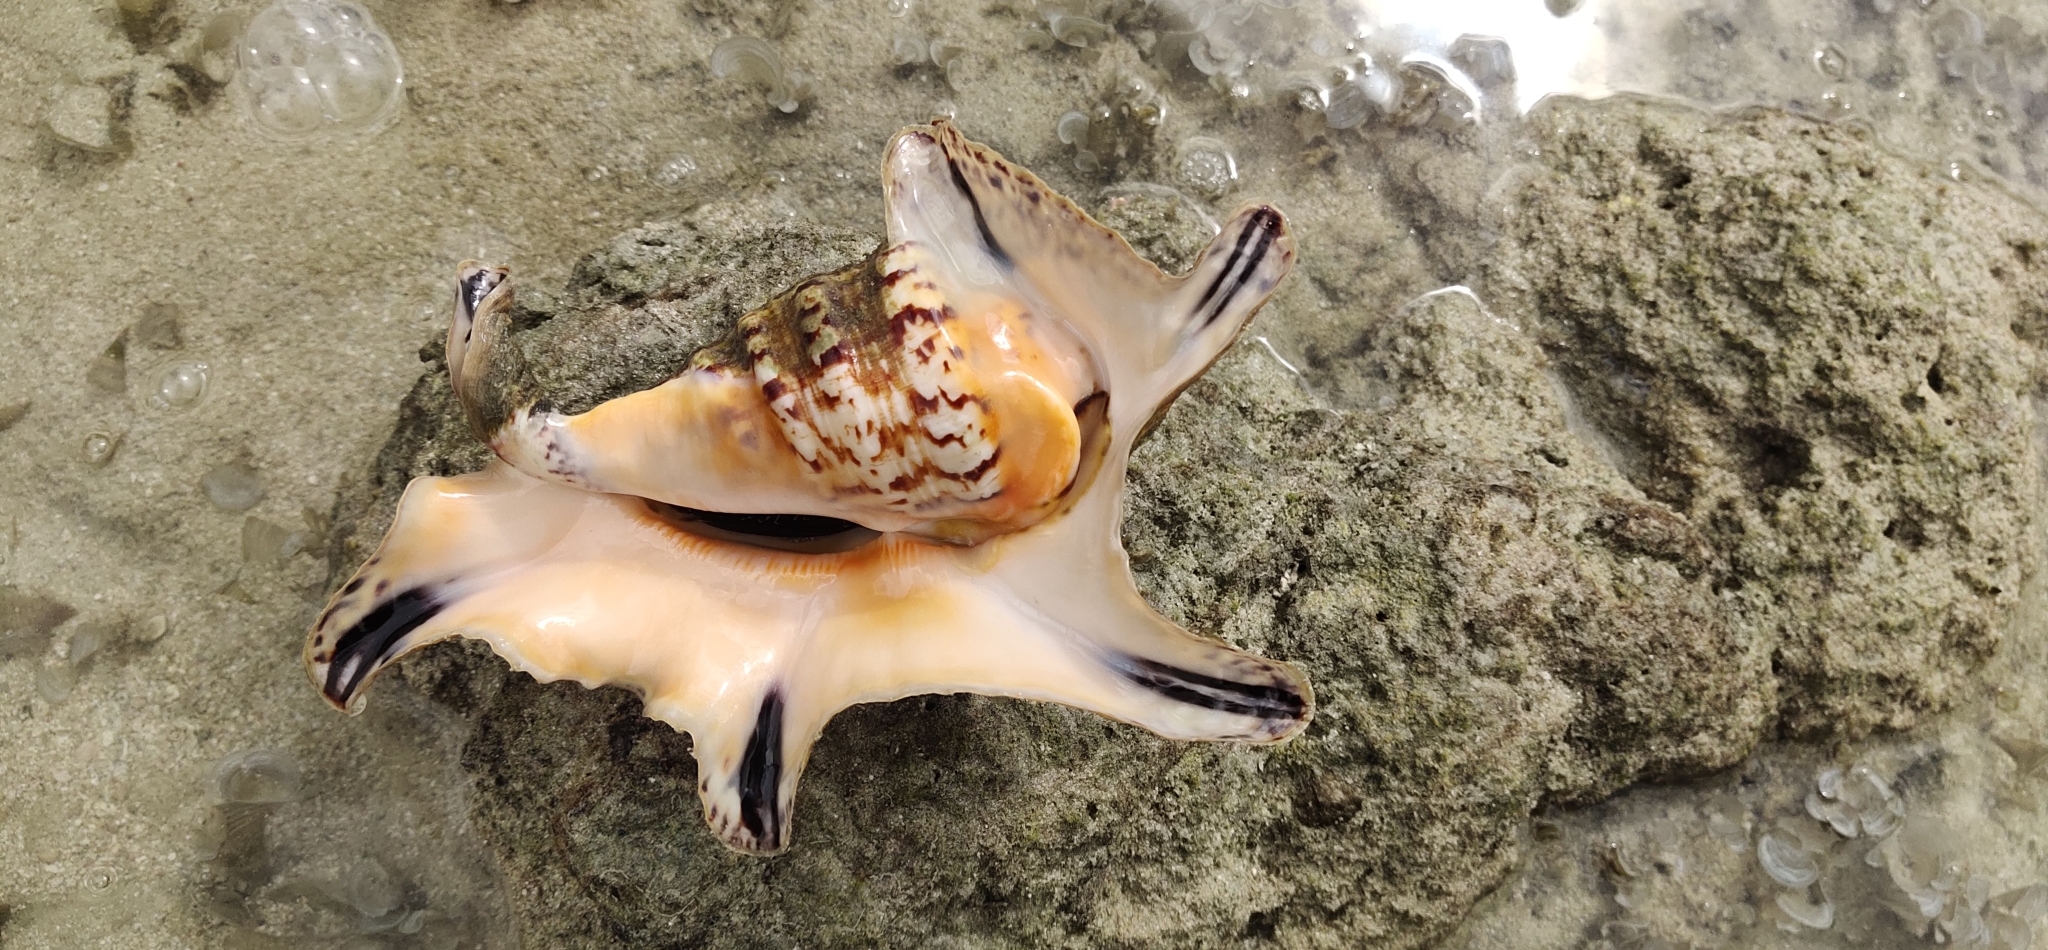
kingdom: Animalia
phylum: Mollusca
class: Gastropoda
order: Littorinimorpha
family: Strombidae
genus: Harpago
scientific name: Harpago chiragra
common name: Chiragra spider conch
